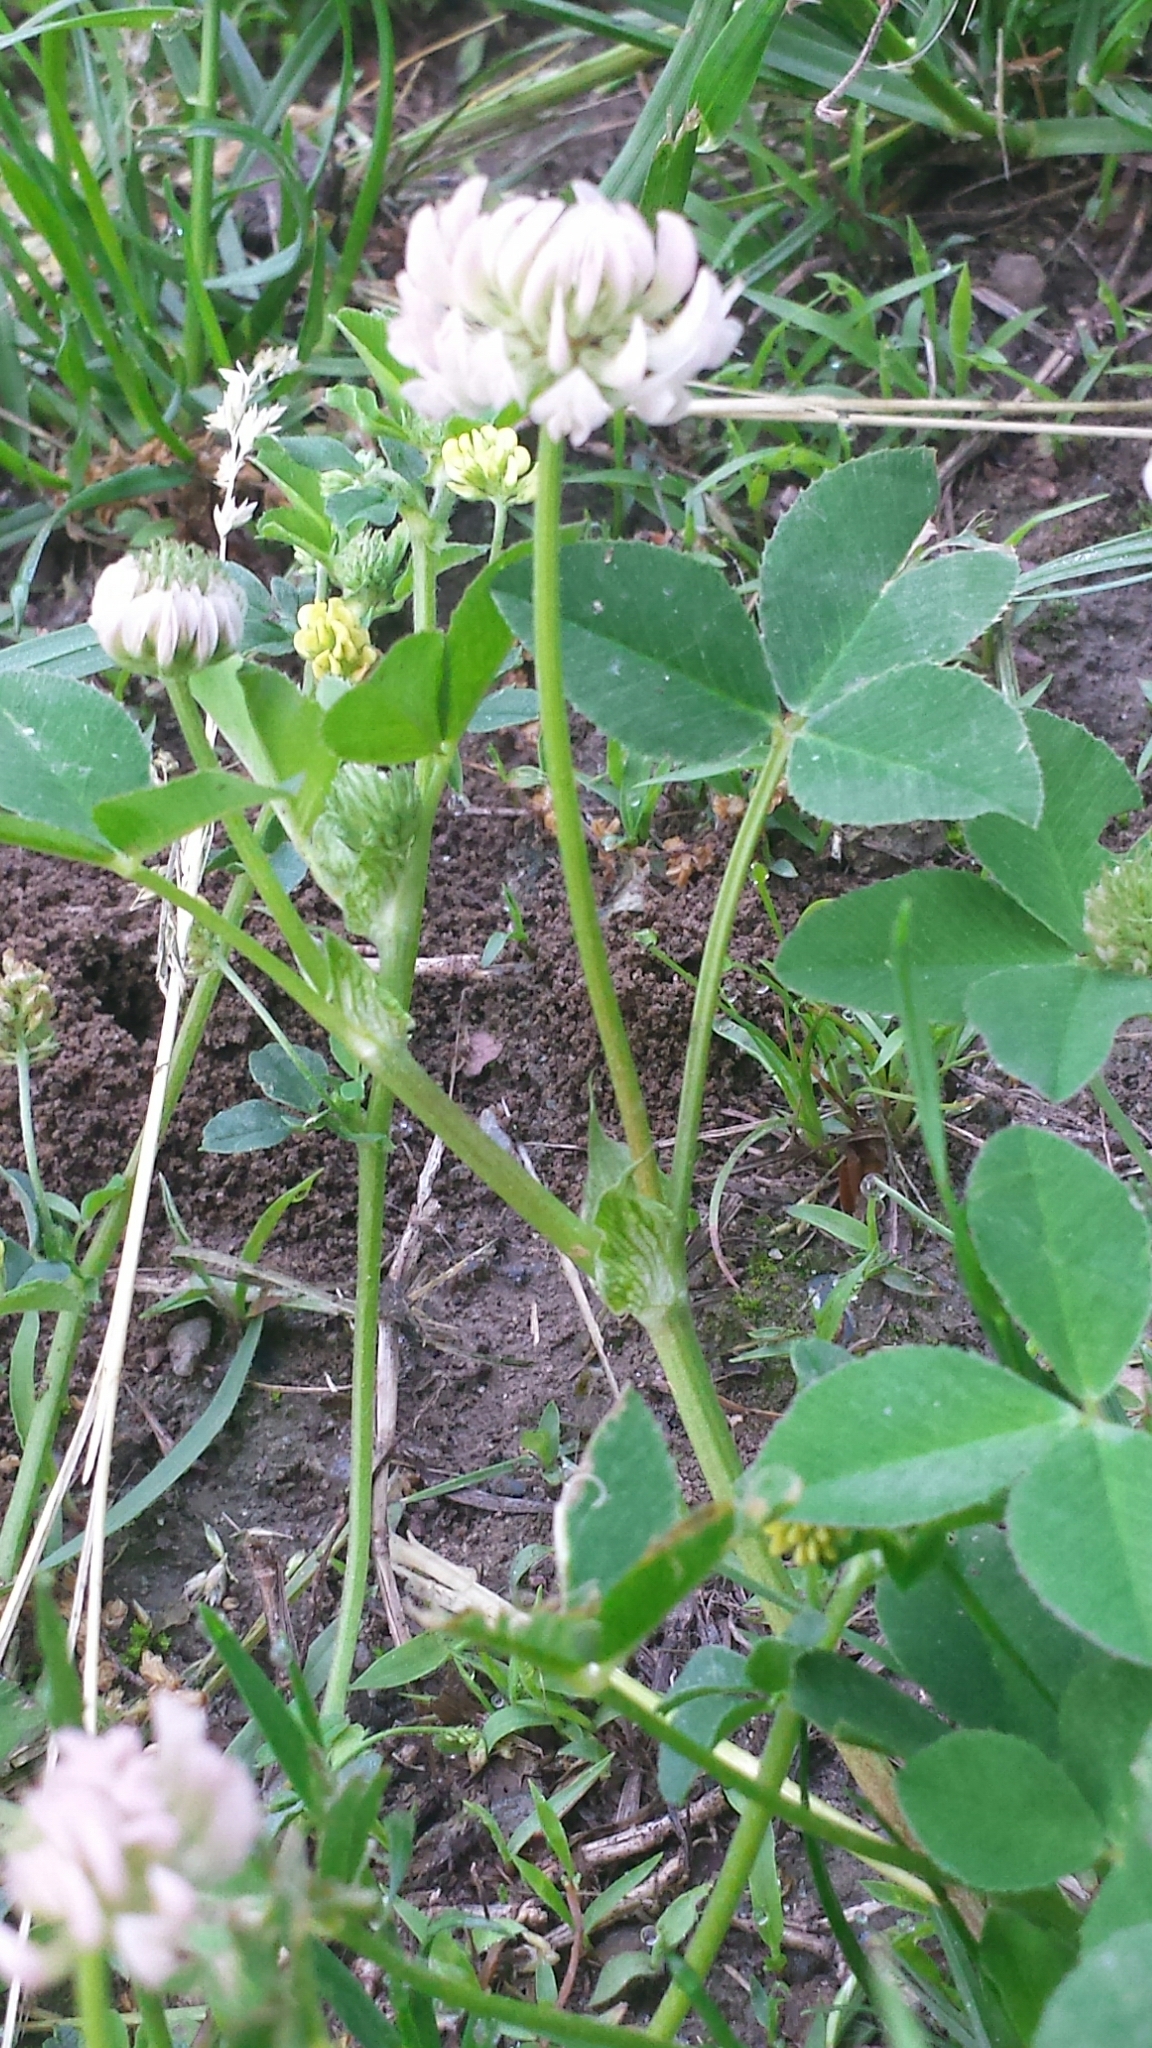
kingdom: Plantae
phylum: Tracheophyta
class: Magnoliopsida
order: Fabales
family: Fabaceae
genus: Trifolium
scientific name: Trifolium hybridum
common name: Alsike clover
